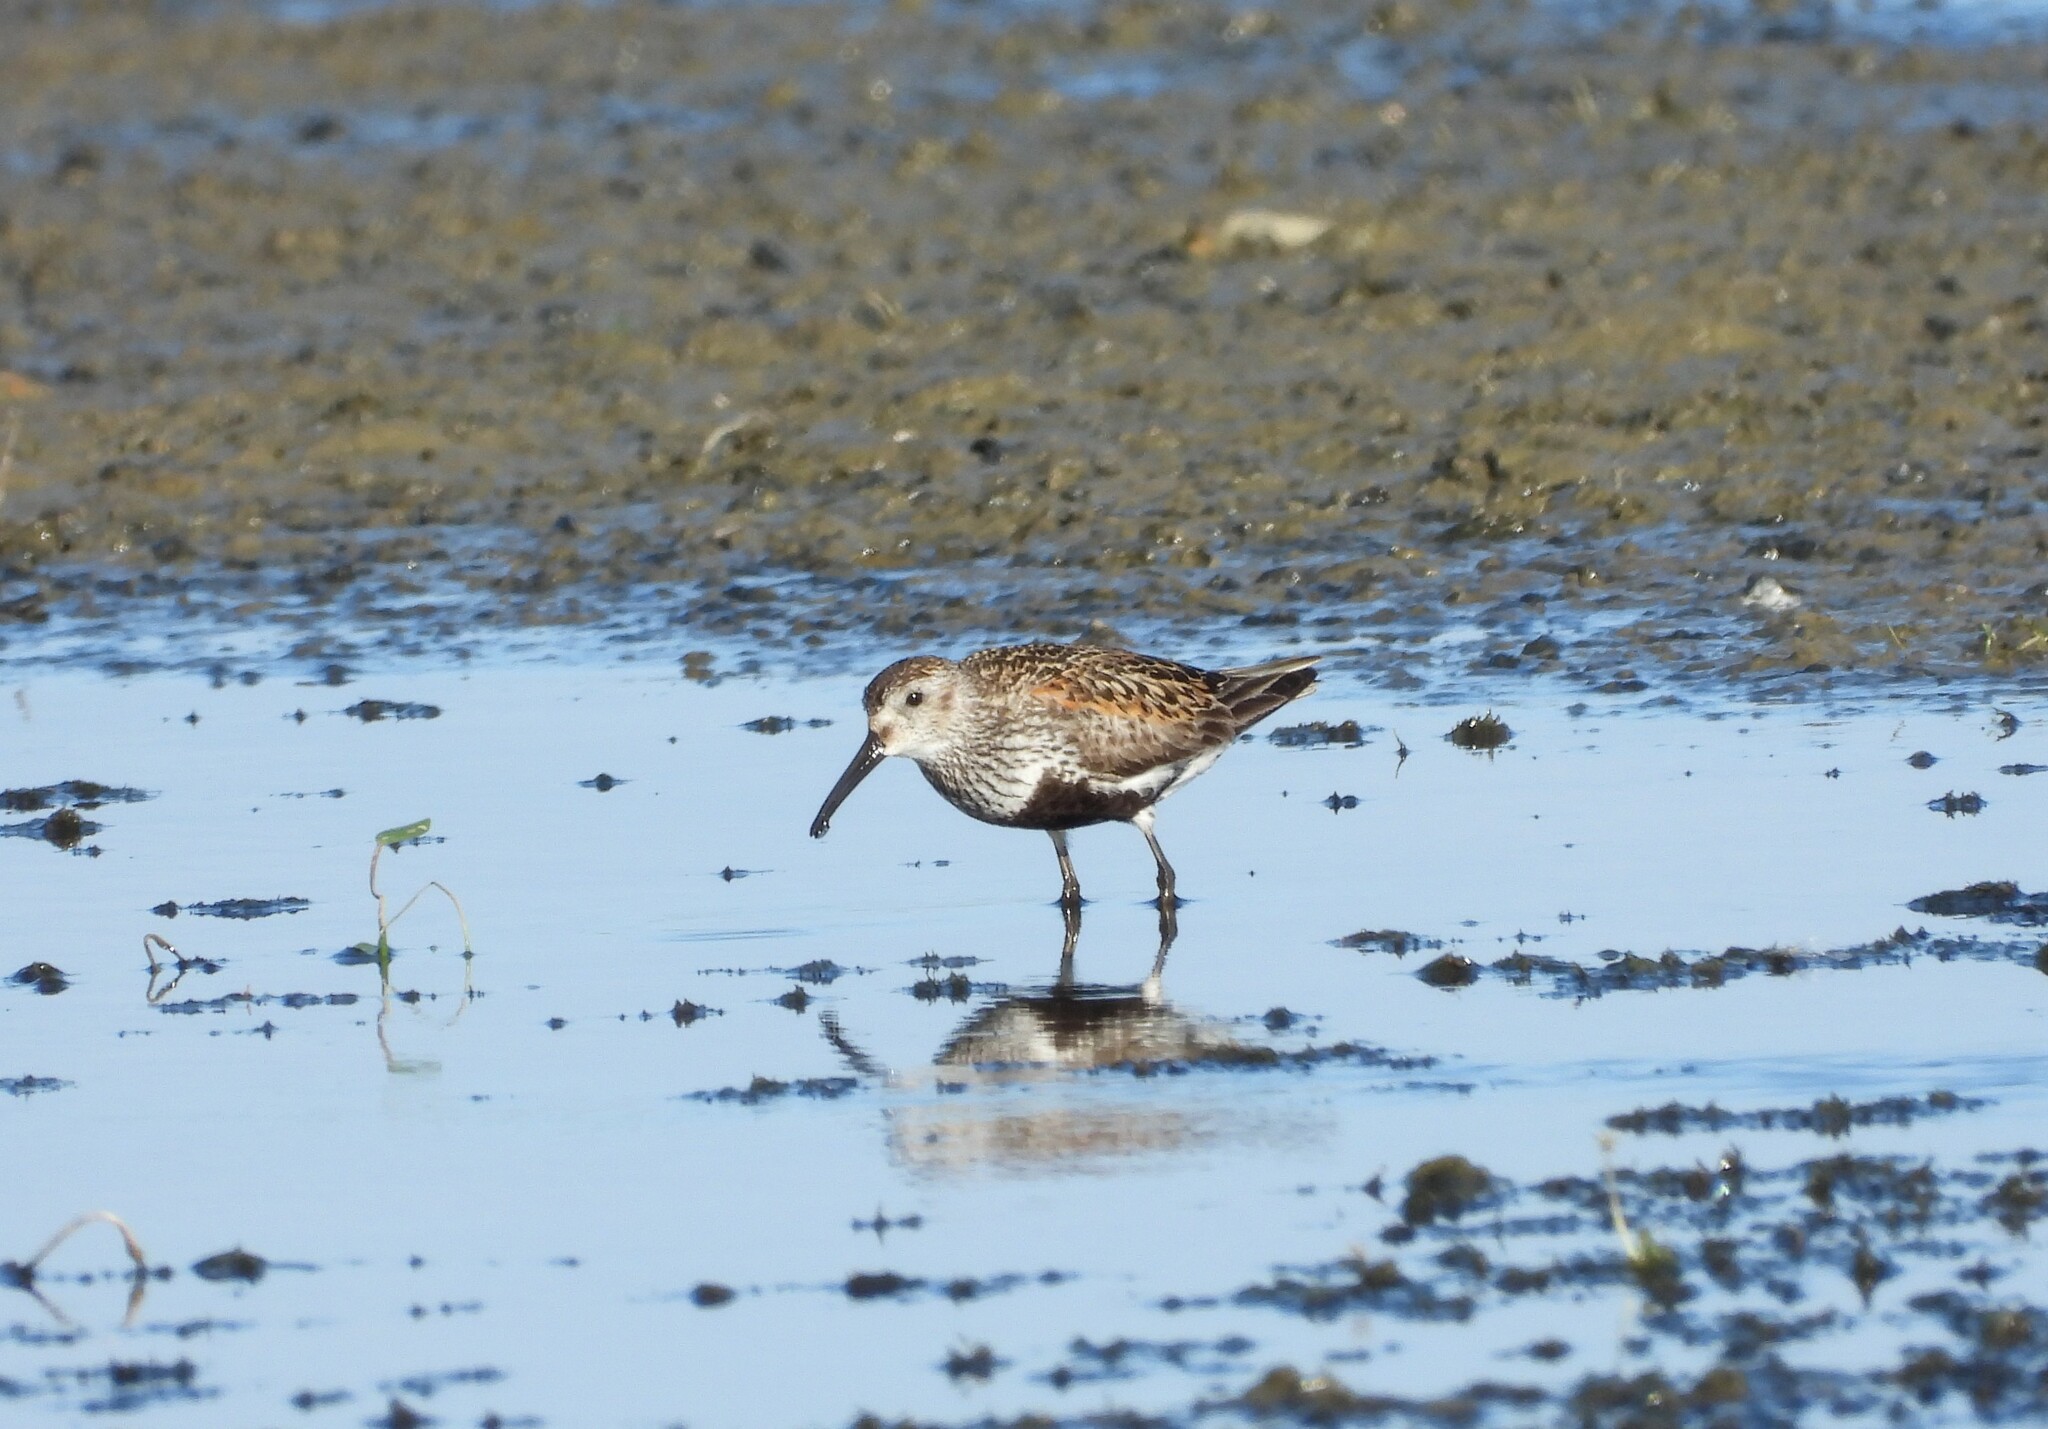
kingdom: Animalia
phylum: Chordata
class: Aves
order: Charadriiformes
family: Scolopacidae
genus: Calidris
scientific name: Calidris alpina
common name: Dunlin
